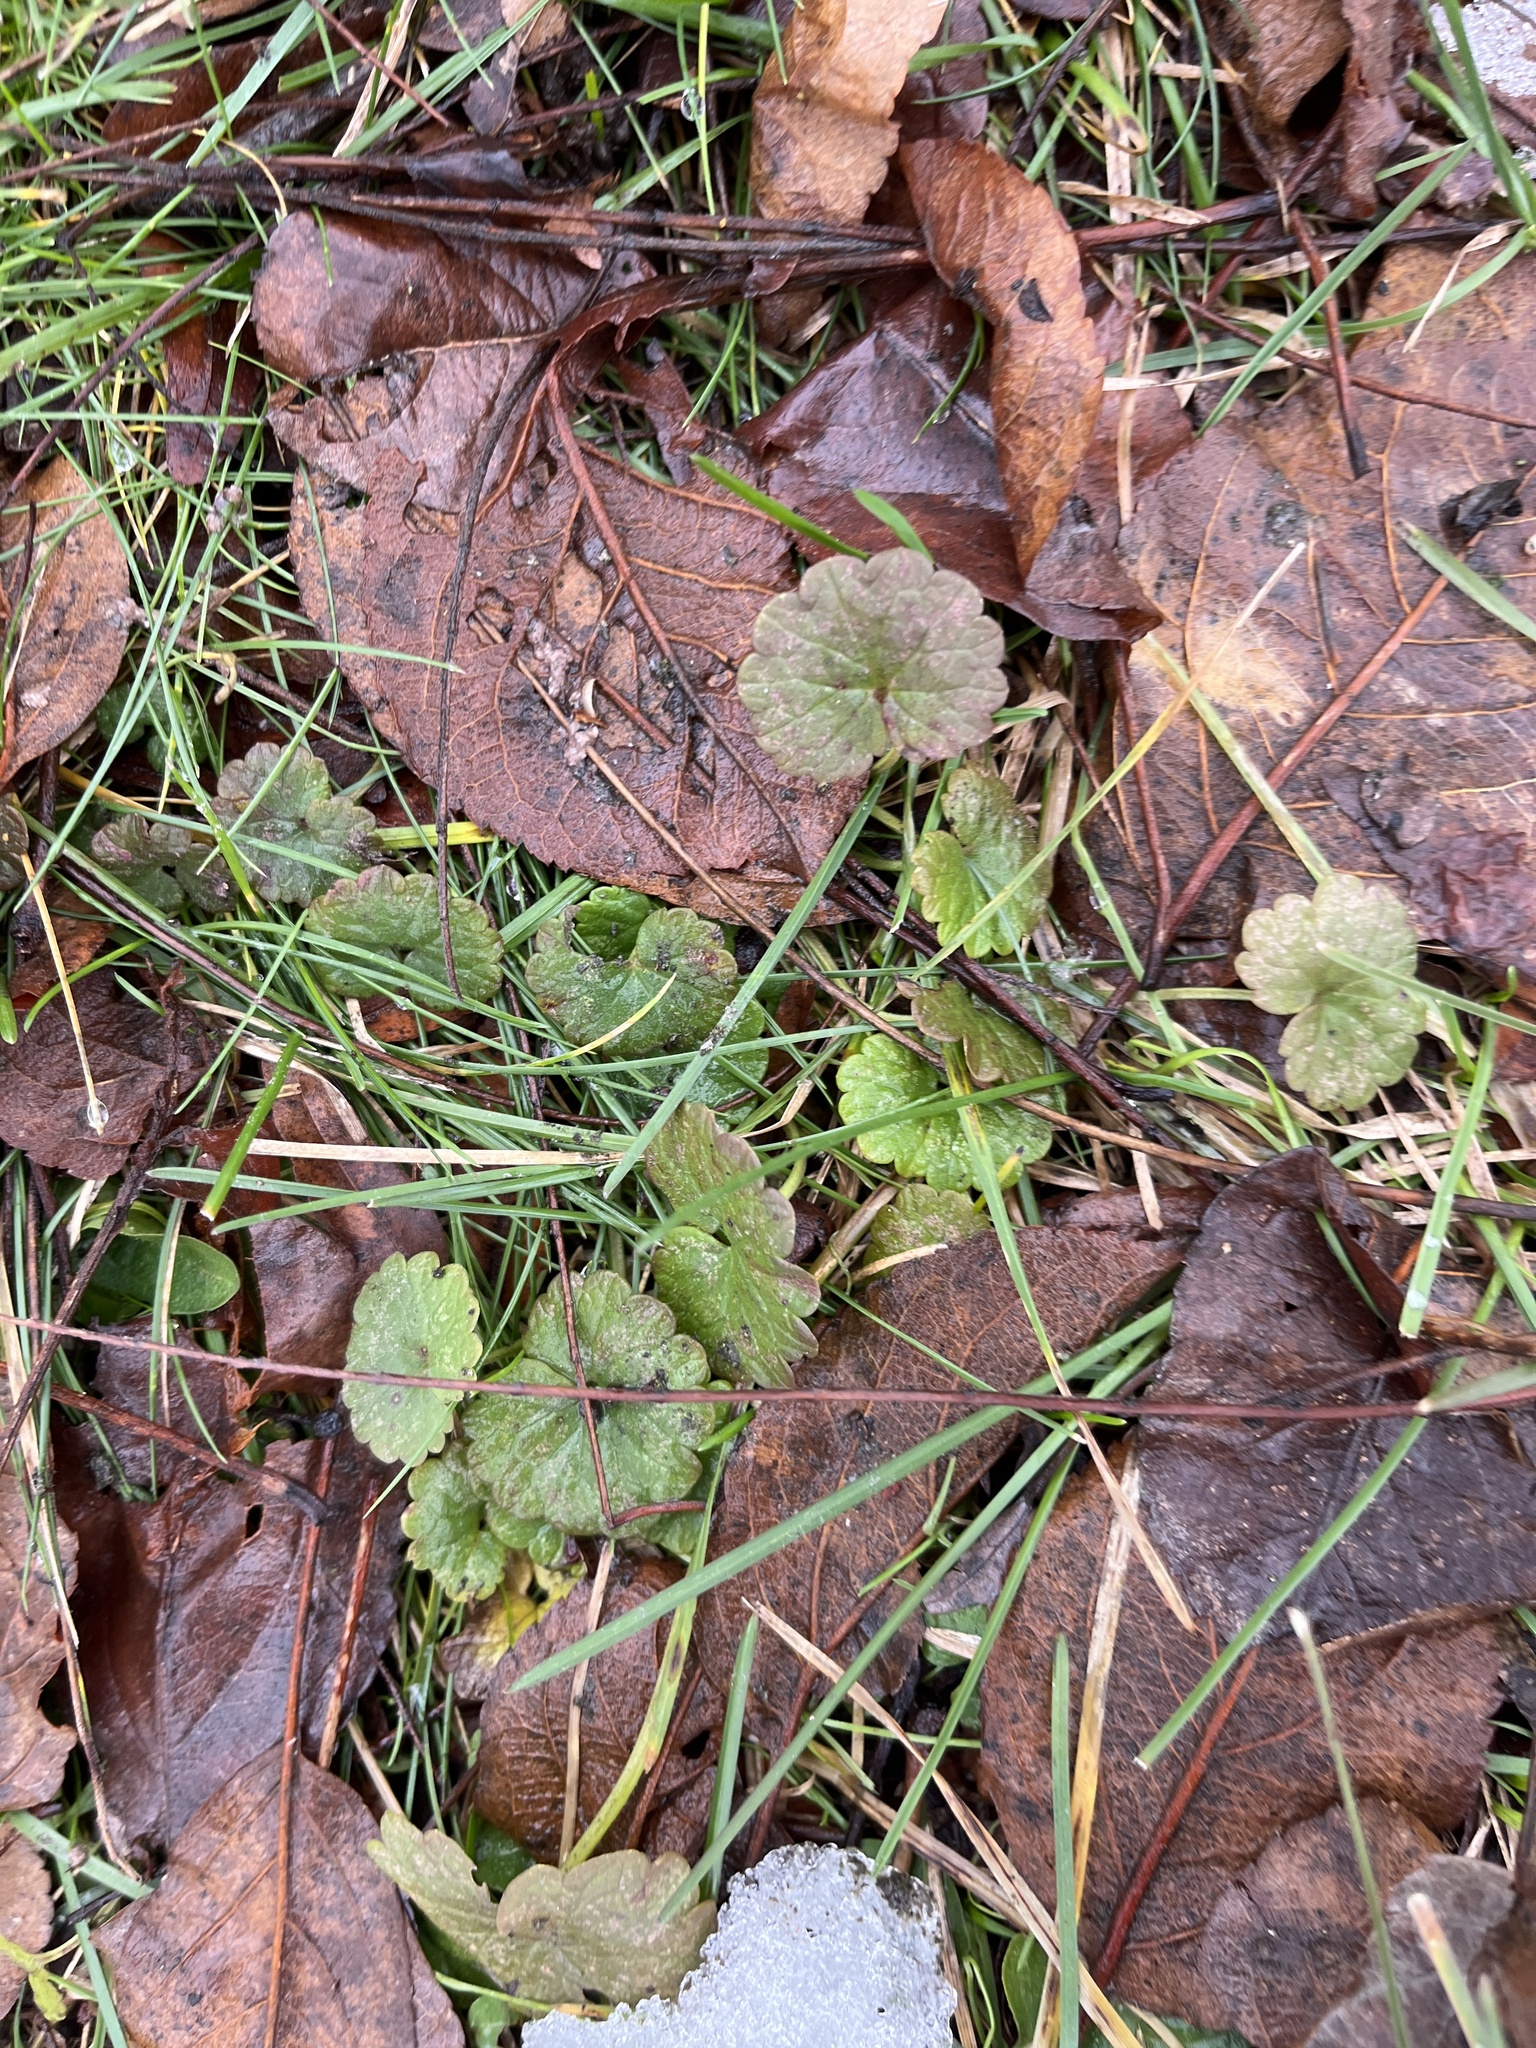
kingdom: Plantae
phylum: Tracheophyta
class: Magnoliopsida
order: Lamiales
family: Lamiaceae
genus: Glechoma
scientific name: Glechoma hederacea
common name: Ground ivy
